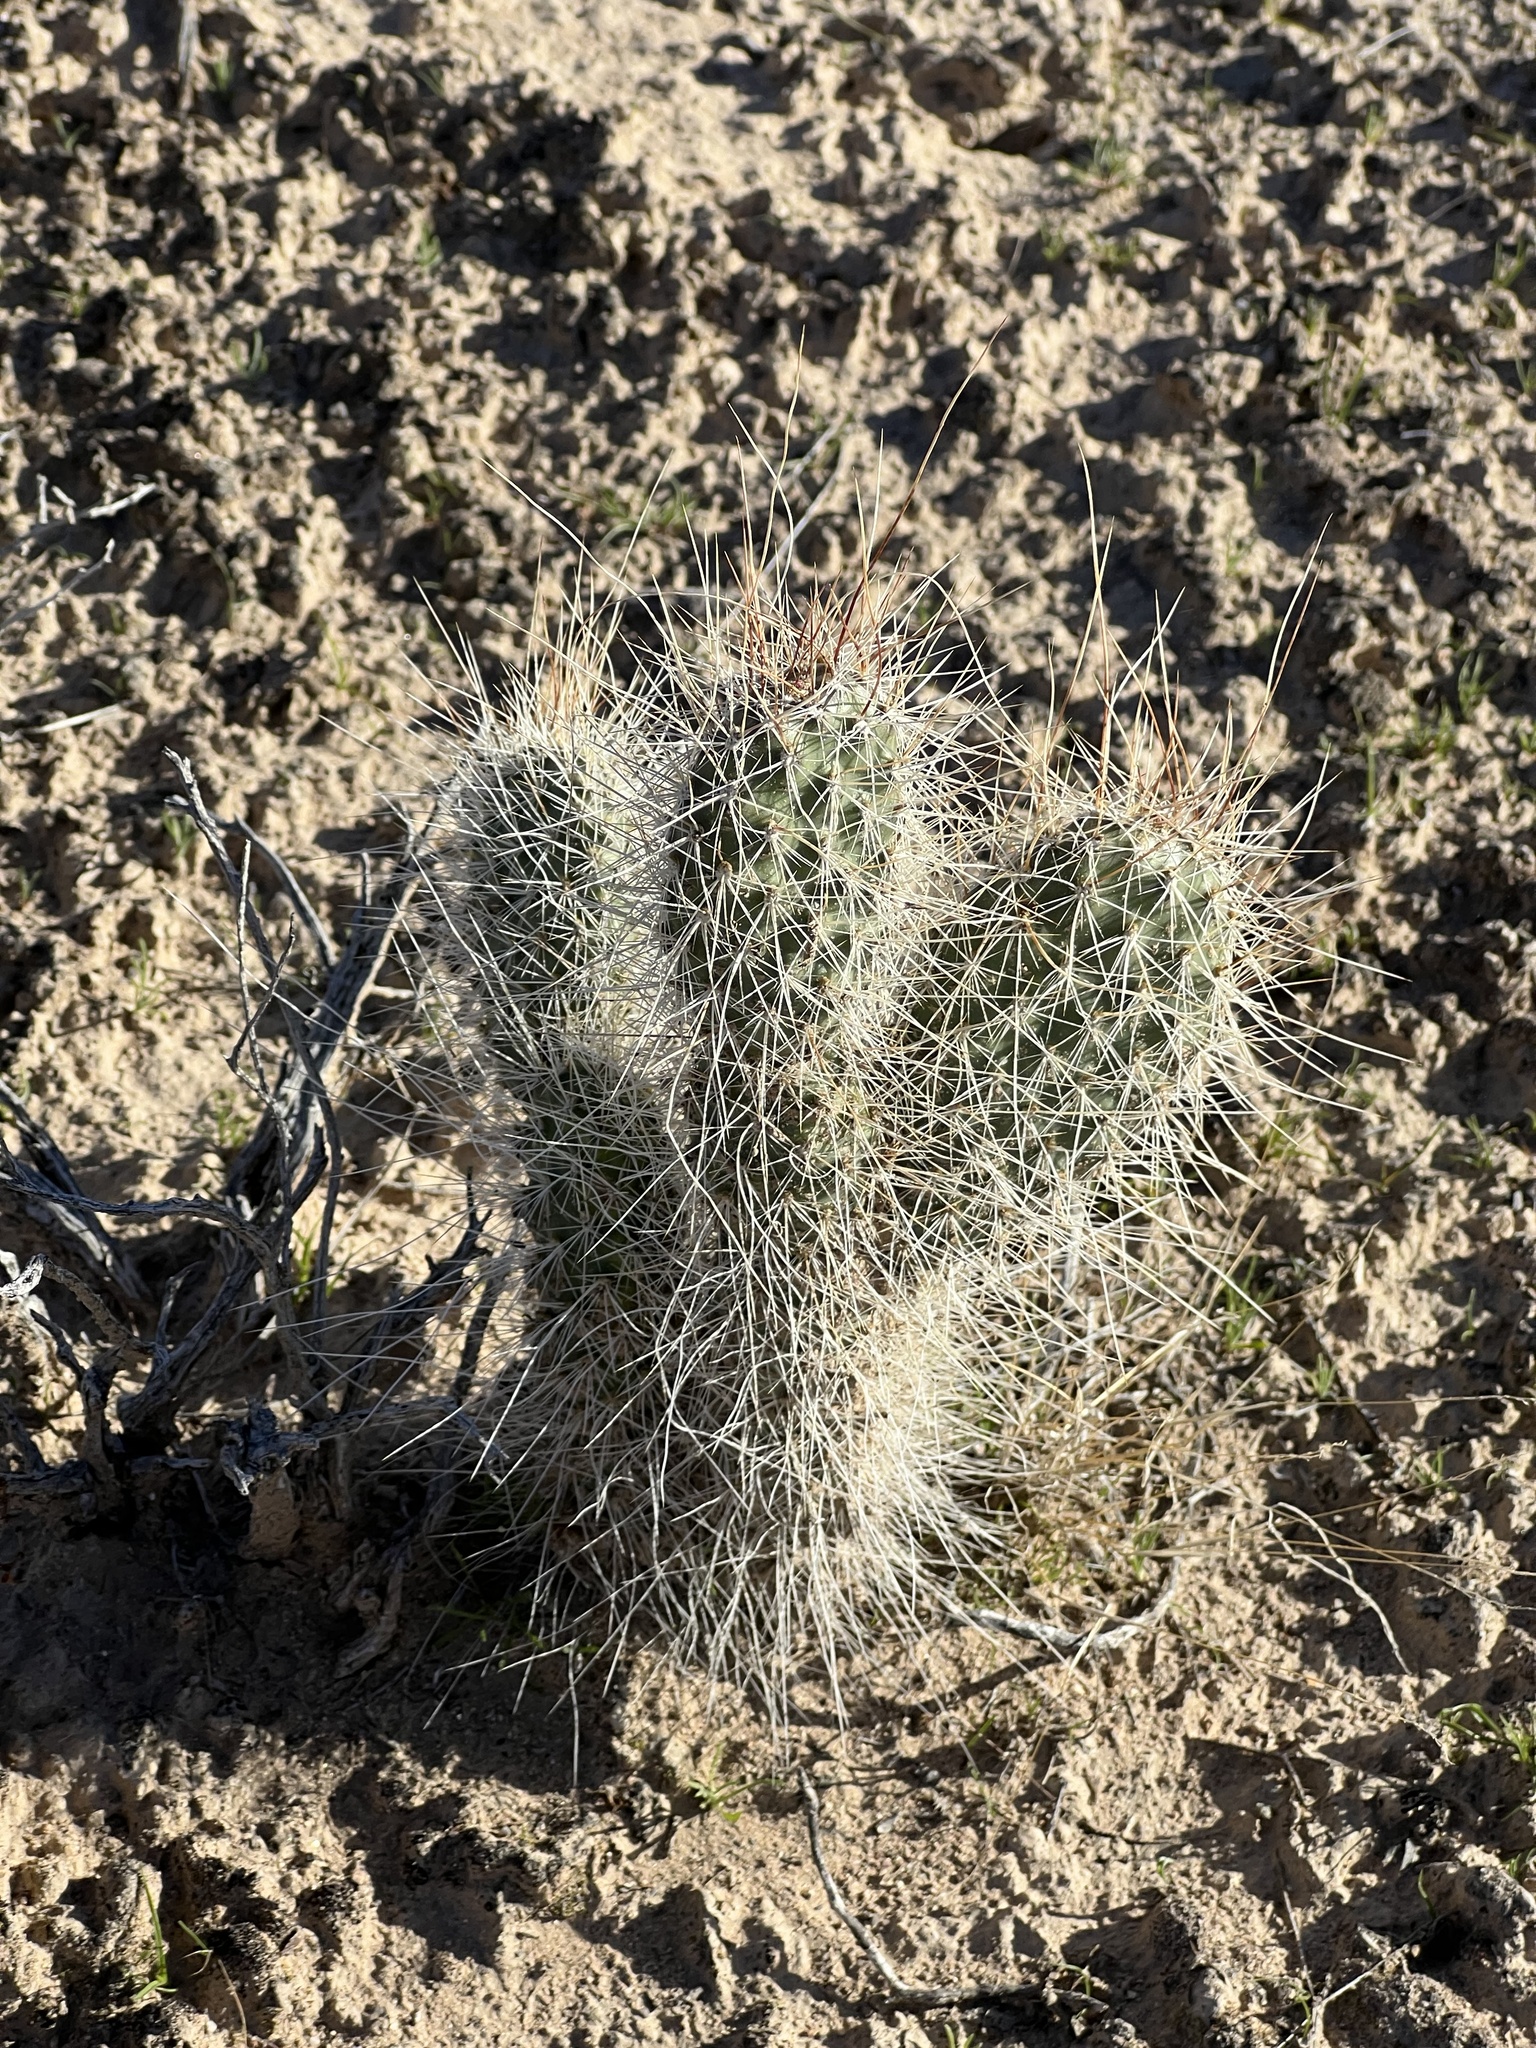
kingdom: Plantae
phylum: Tracheophyta
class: Magnoliopsida
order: Caryophyllales
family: Cactaceae
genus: Opuntia
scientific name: Opuntia polyacantha
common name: Plains prickly-pear
